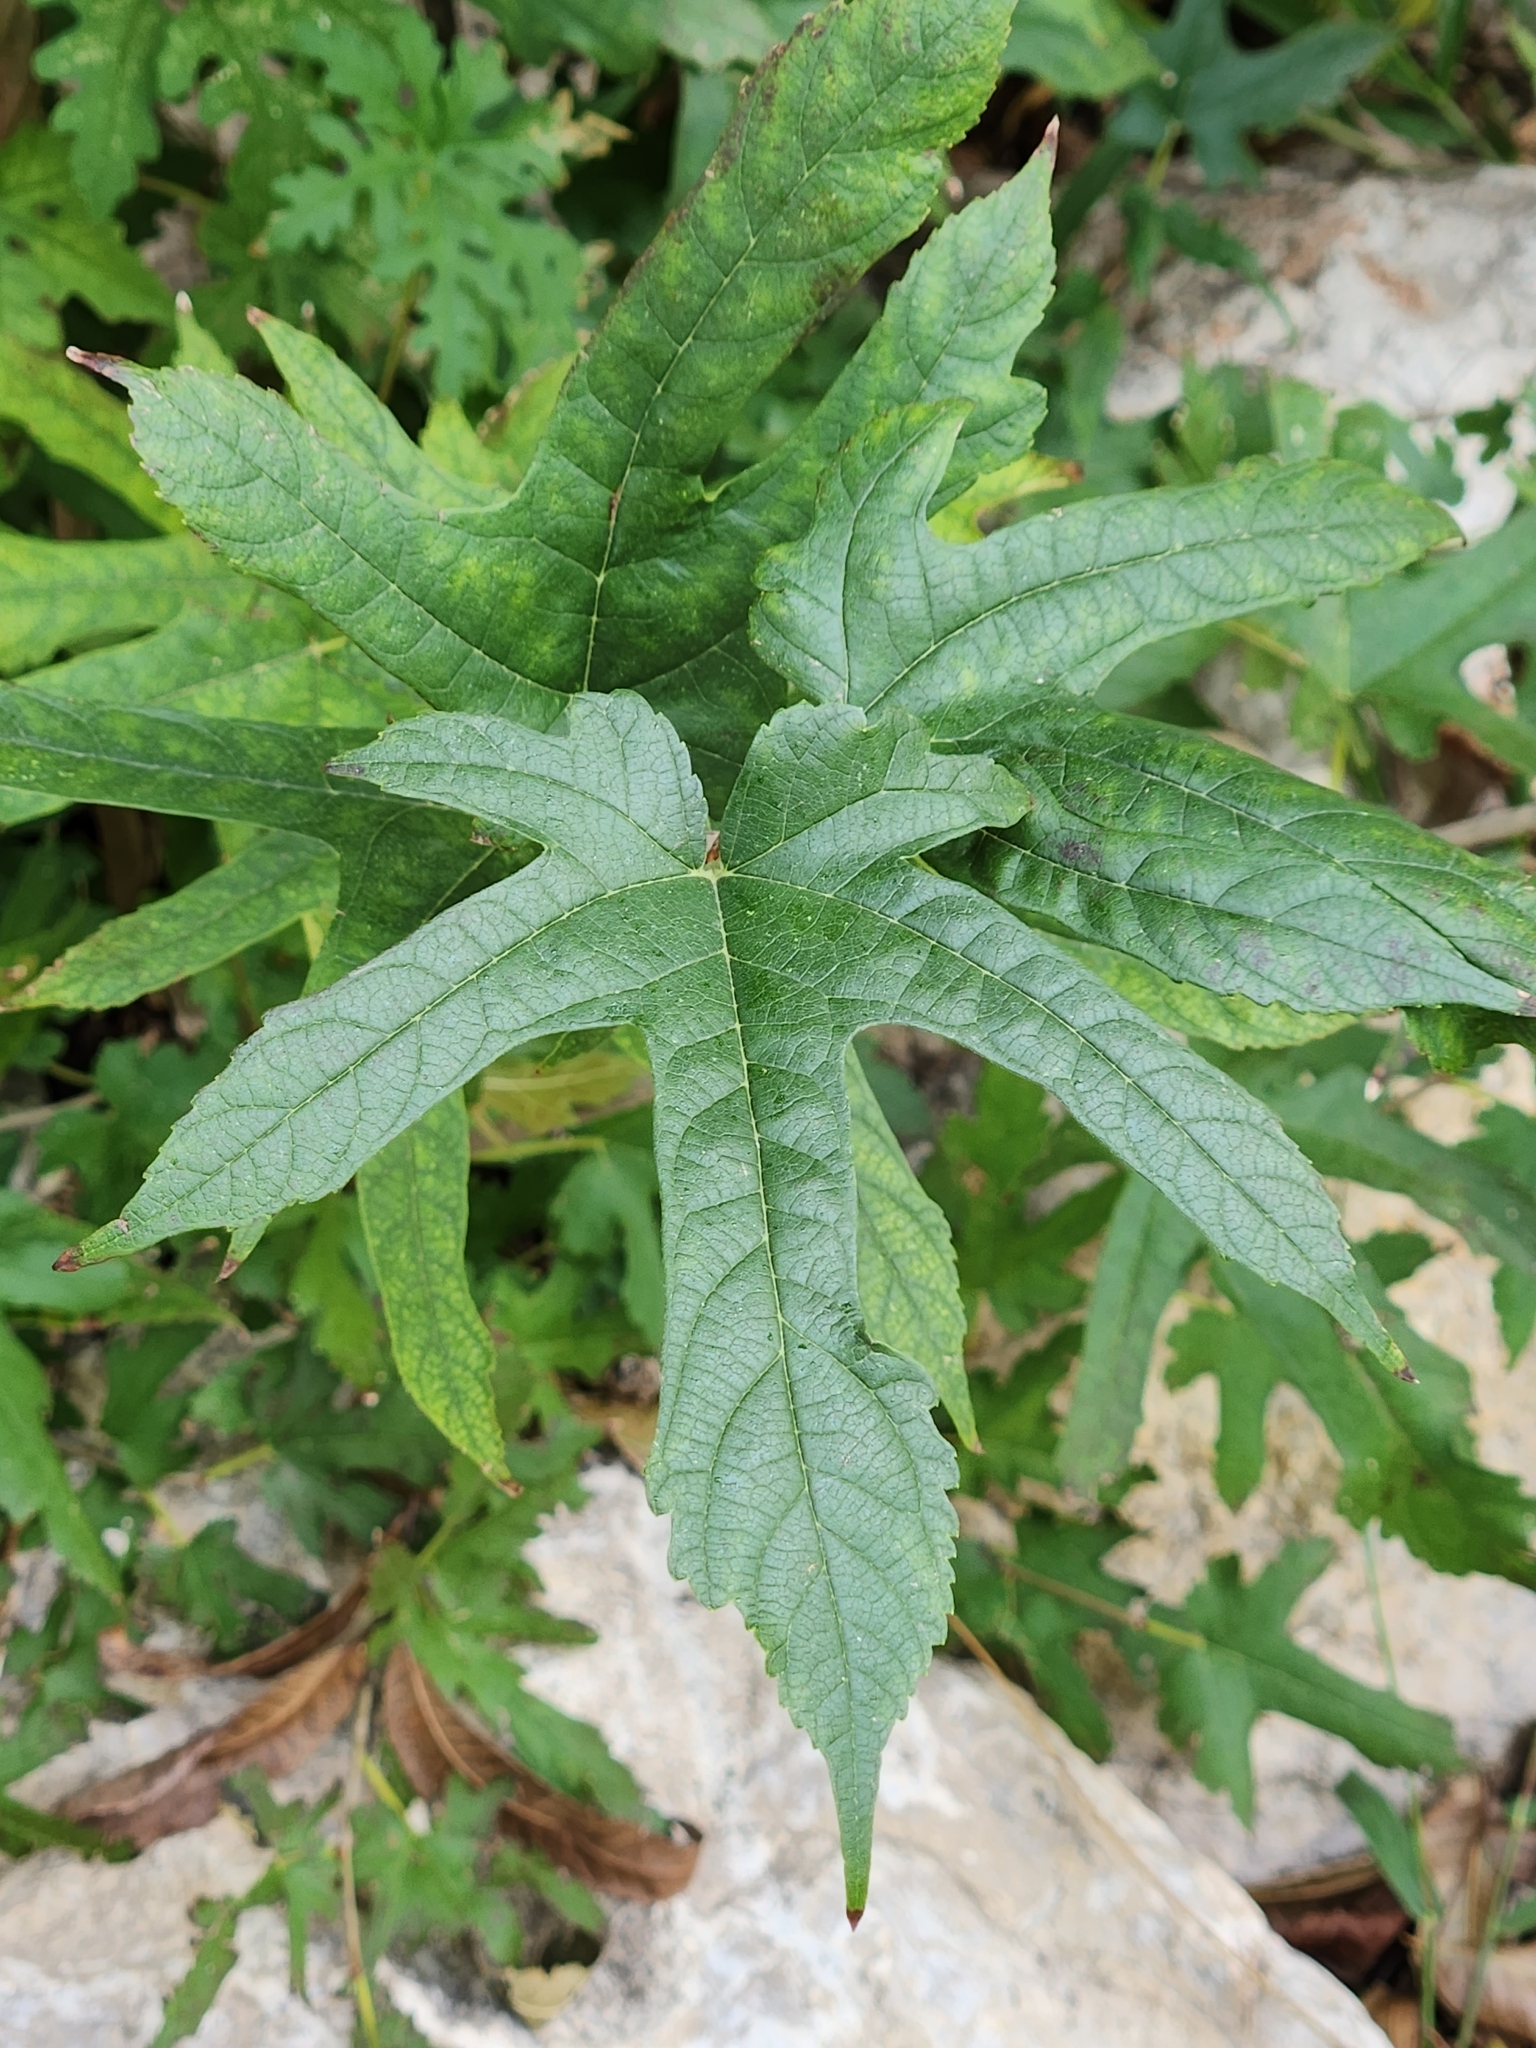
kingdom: Plantae
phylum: Tracheophyta
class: Magnoliopsida
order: Rosales
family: Moraceae
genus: Morus
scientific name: Morus indica
